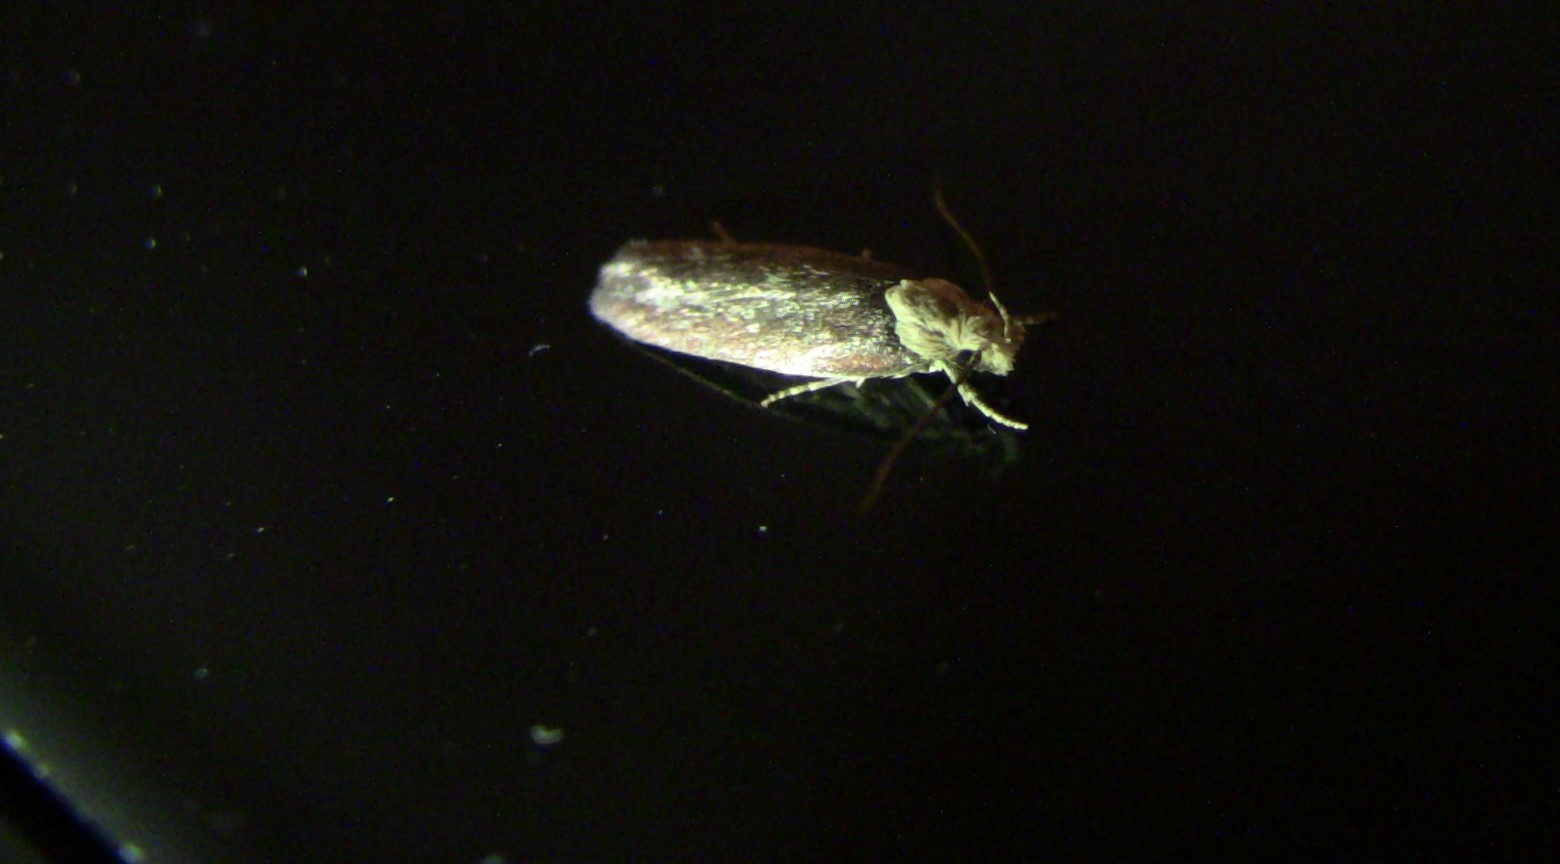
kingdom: Animalia
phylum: Arthropoda
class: Insecta
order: Lepidoptera
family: Depressariidae
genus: Depressaria
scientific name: Depressaria depressana
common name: Lost flat-body
